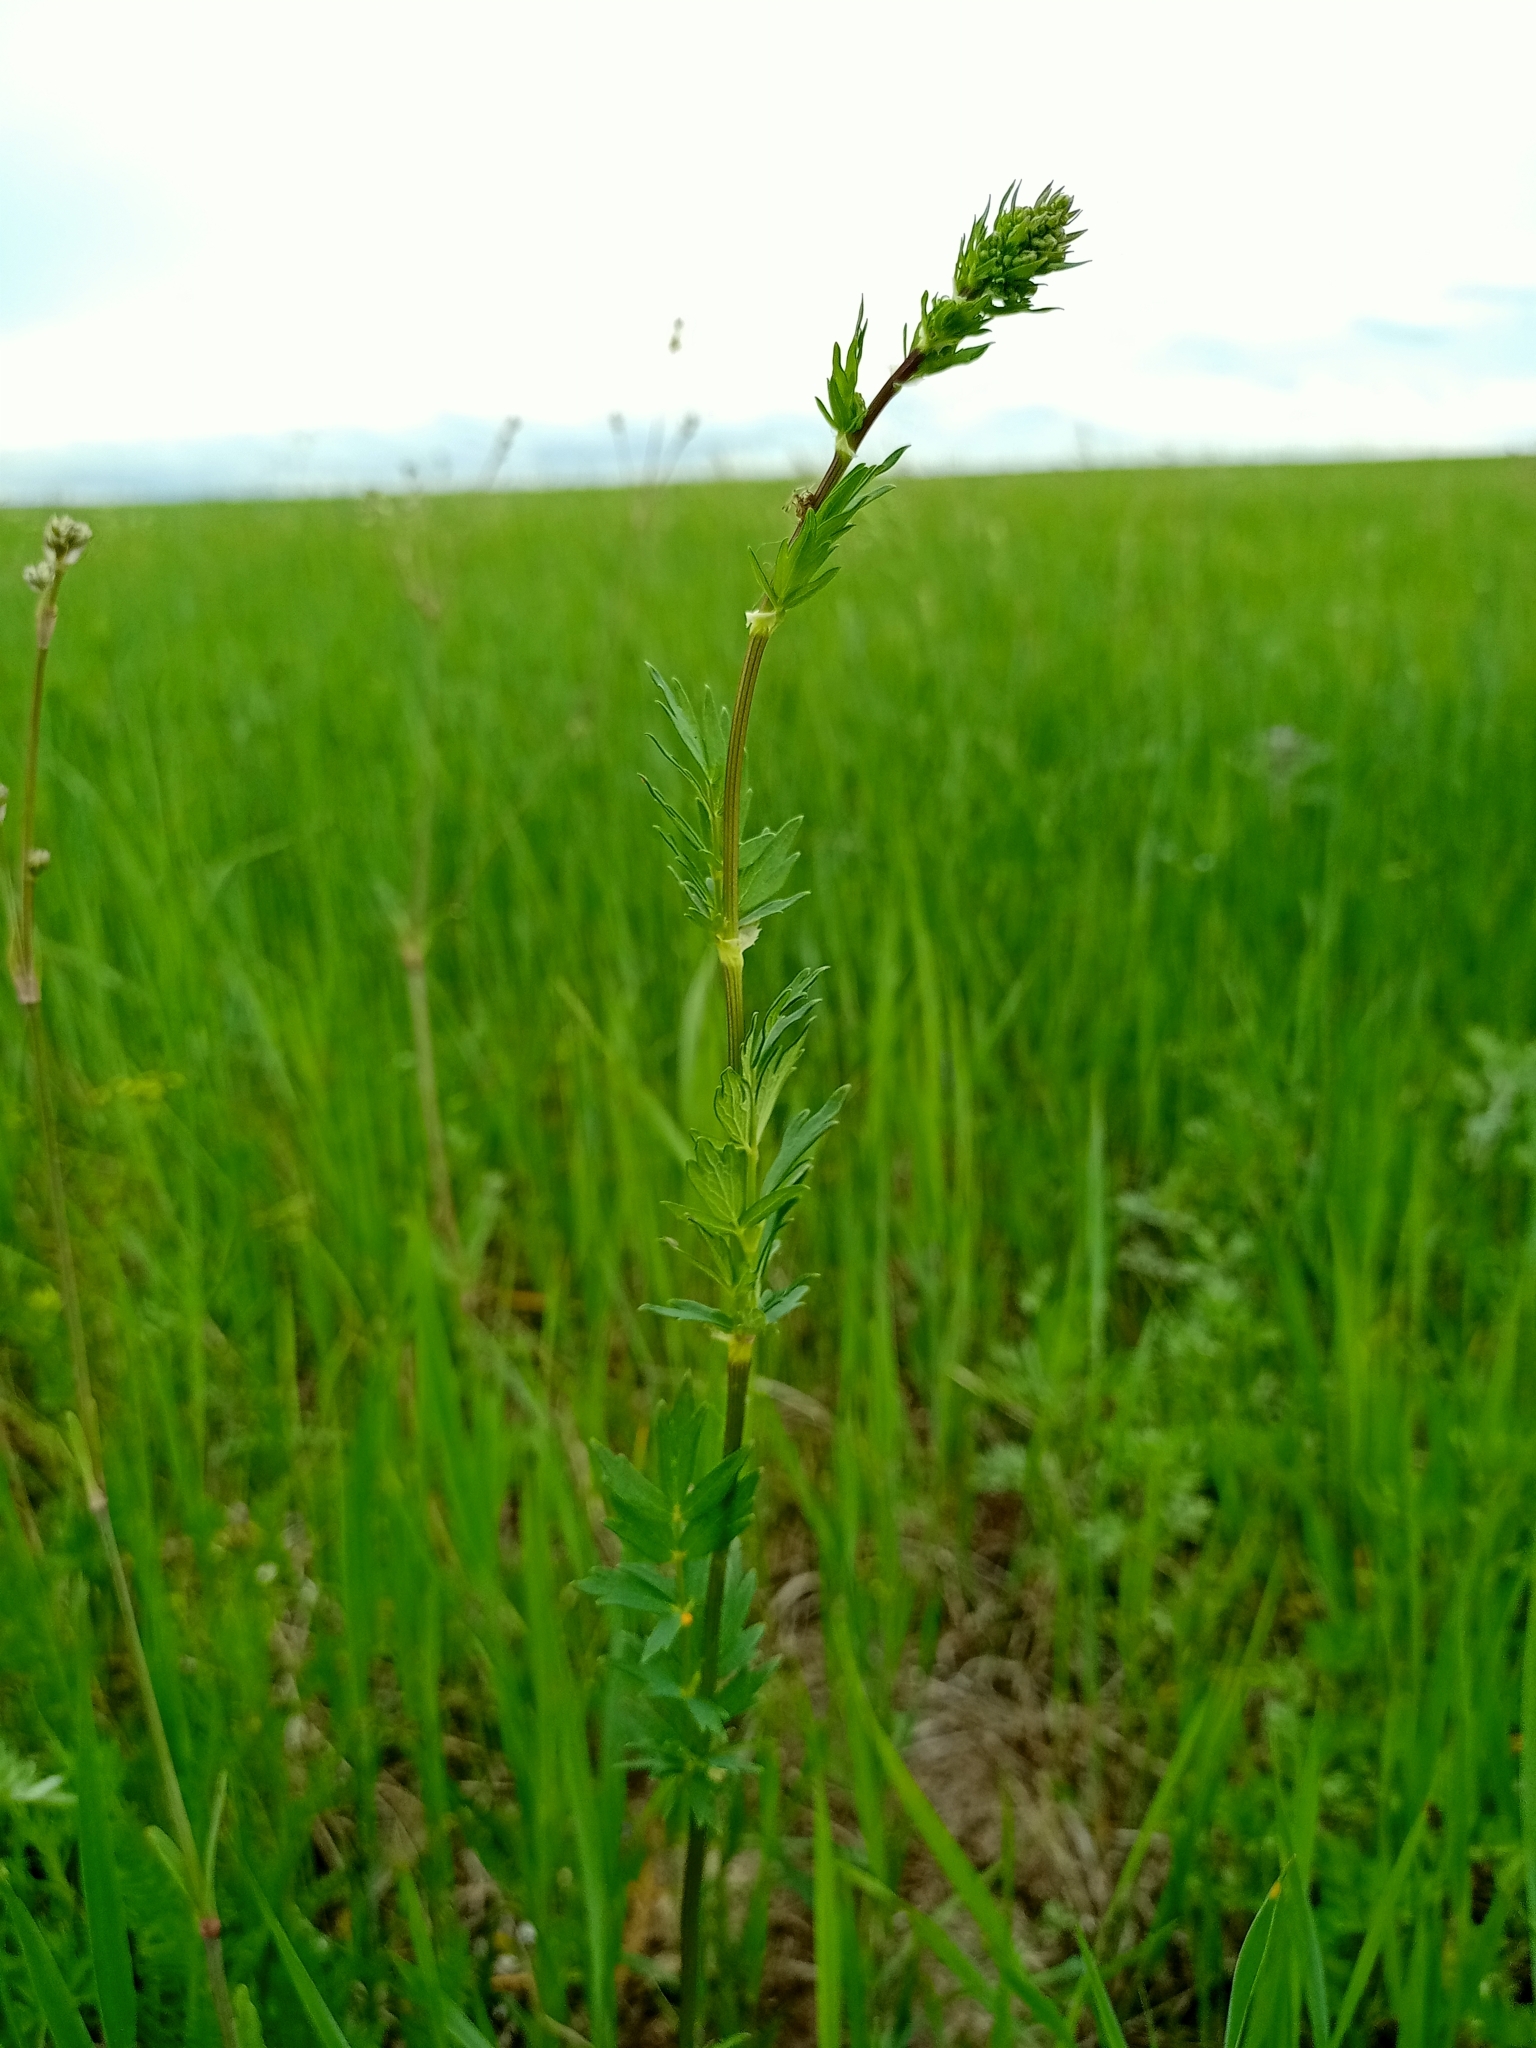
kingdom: Plantae
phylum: Tracheophyta
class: Magnoliopsida
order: Ranunculales
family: Ranunculaceae
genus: Thalictrum
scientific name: Thalictrum simplex
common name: Small meadow-rue
